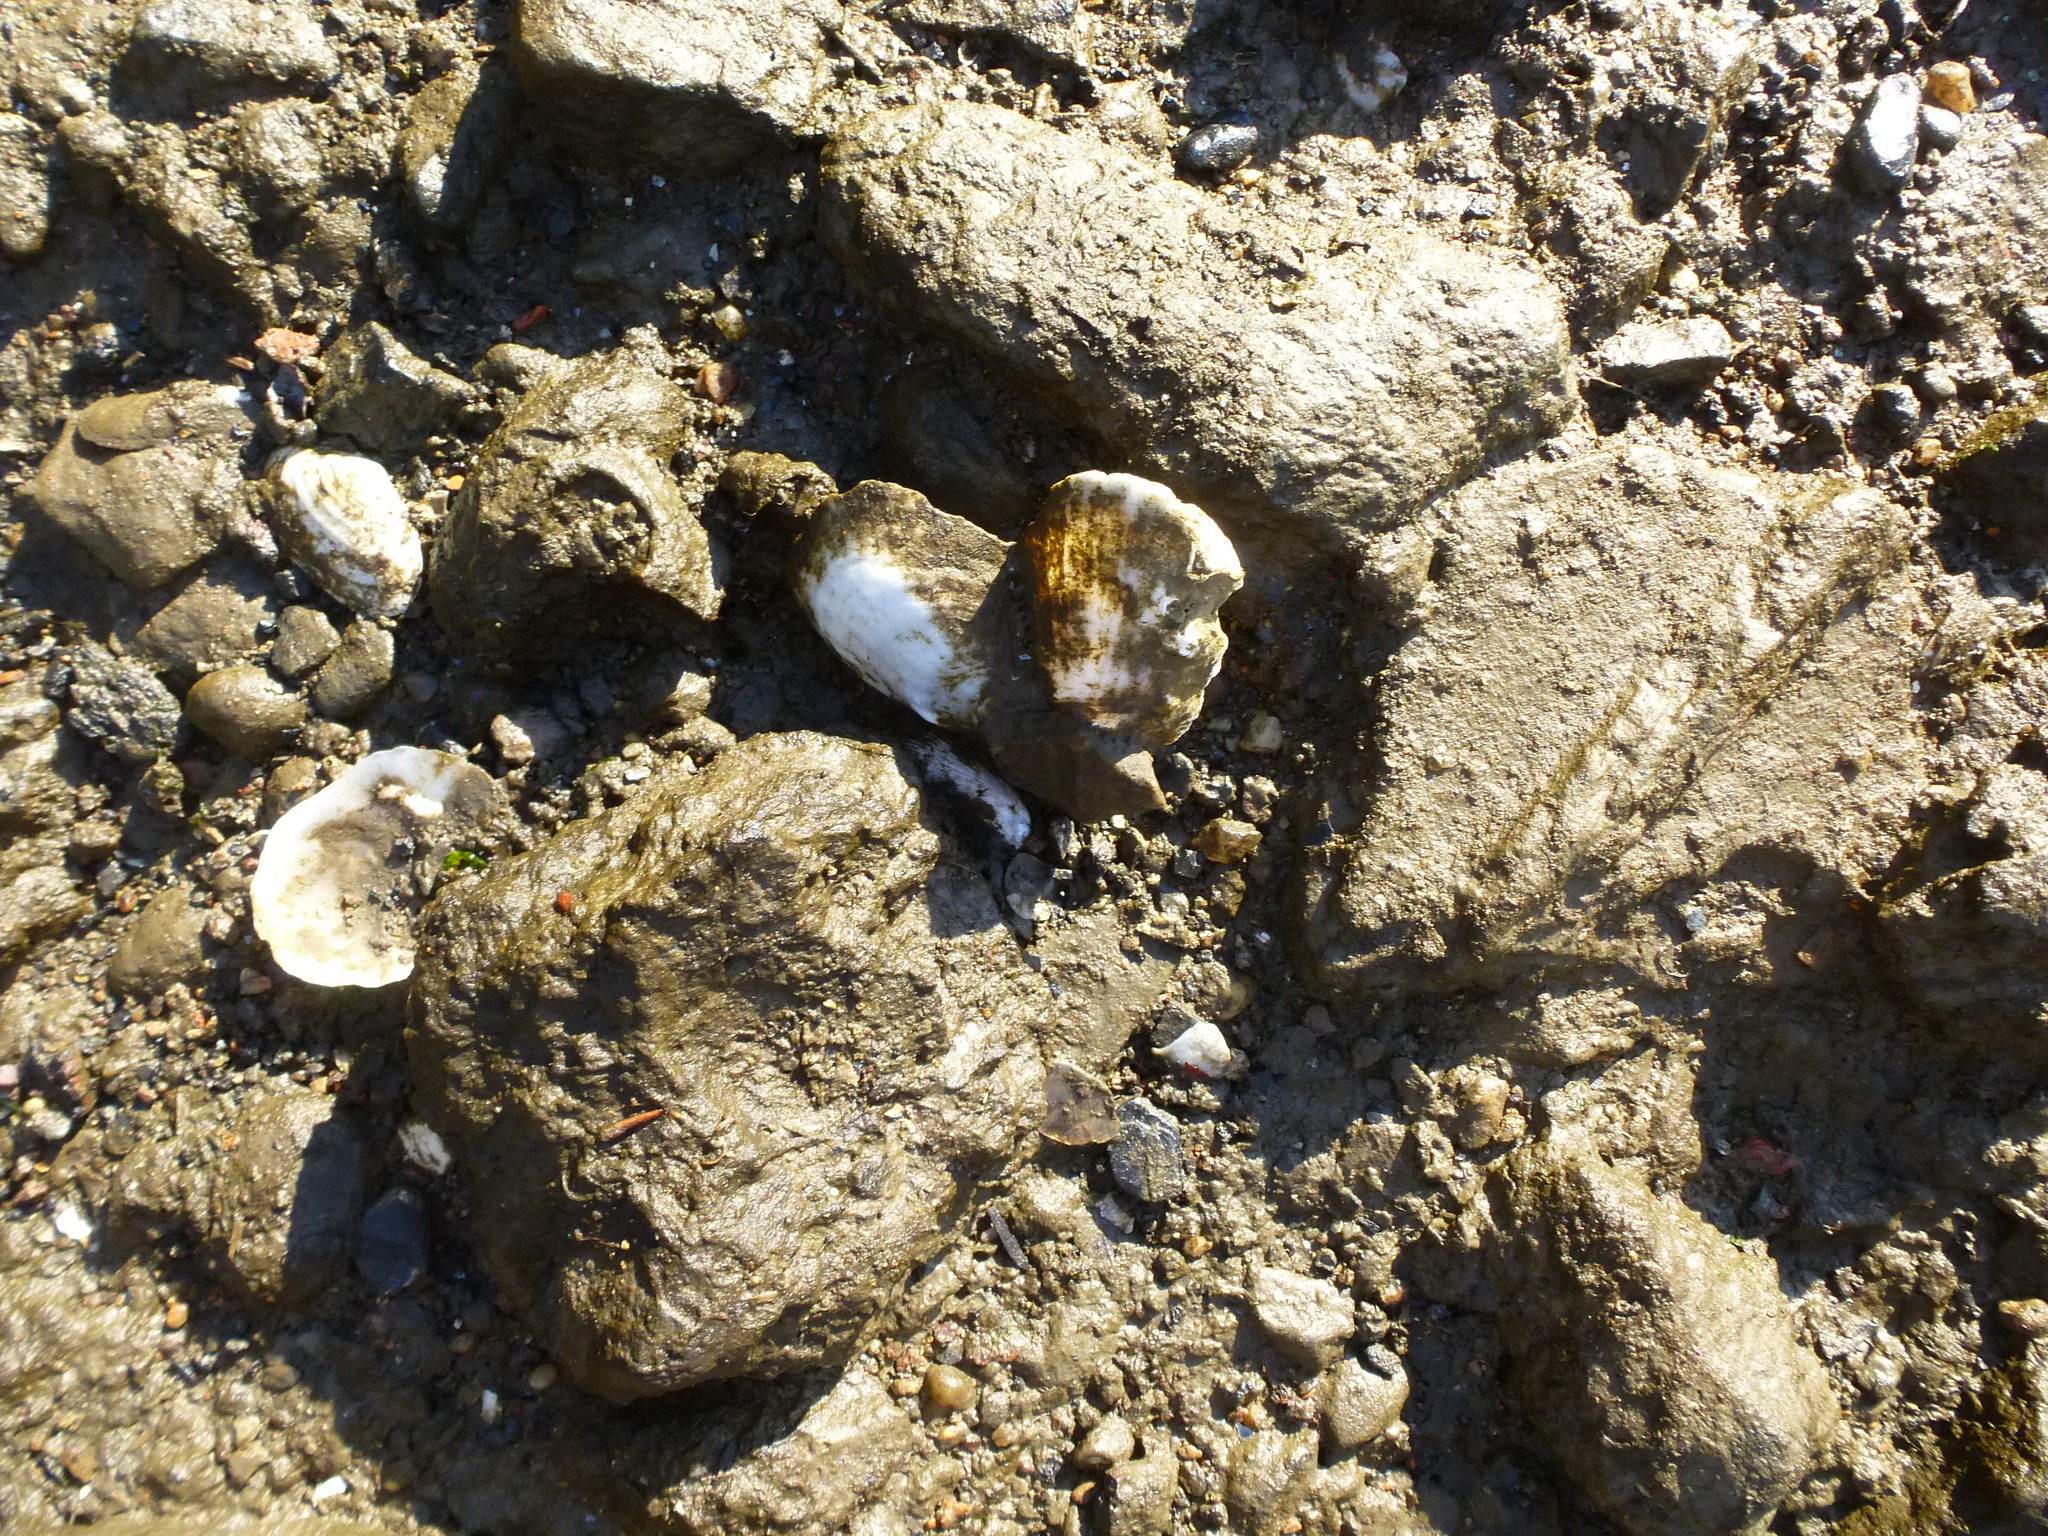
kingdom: Animalia
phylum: Mollusca
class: Bivalvia
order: Ostreida
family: Ostreidae
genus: Crassostrea
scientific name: Crassostrea virginica
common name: American oyster
